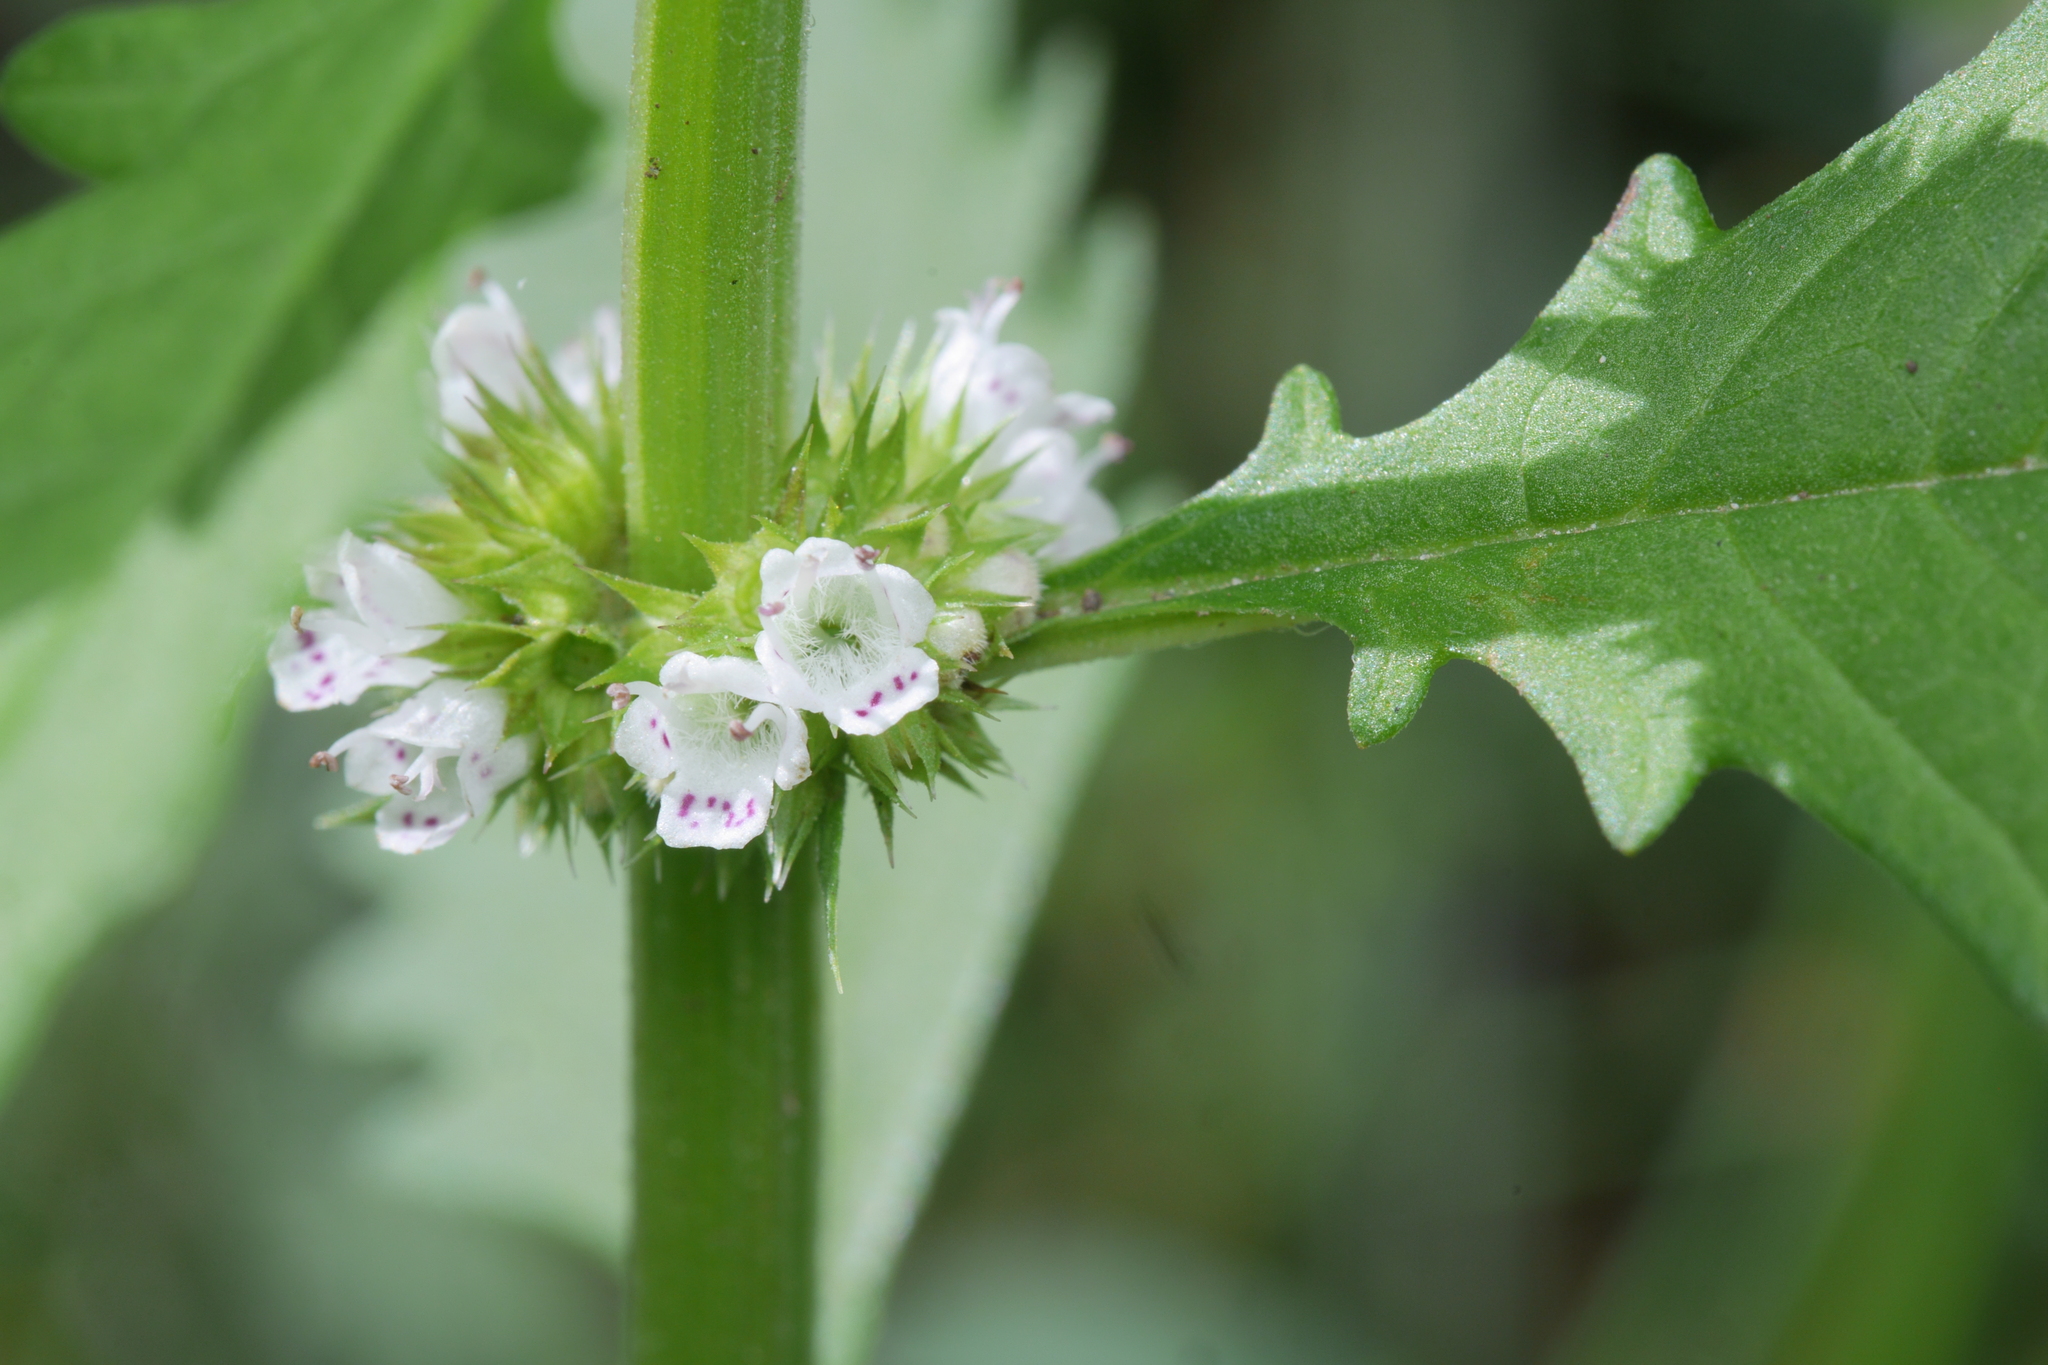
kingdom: Plantae
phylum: Tracheophyta
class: Magnoliopsida
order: Lamiales
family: Lamiaceae
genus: Lycopus
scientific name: Lycopus europaeus
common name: European bugleweed
